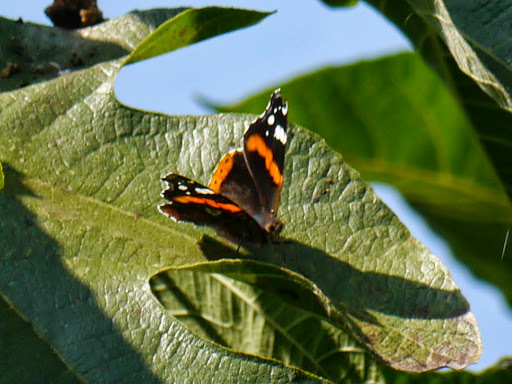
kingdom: Animalia
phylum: Arthropoda
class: Insecta
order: Lepidoptera
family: Nymphalidae
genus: Vanessa
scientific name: Vanessa atalanta
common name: Red admiral
